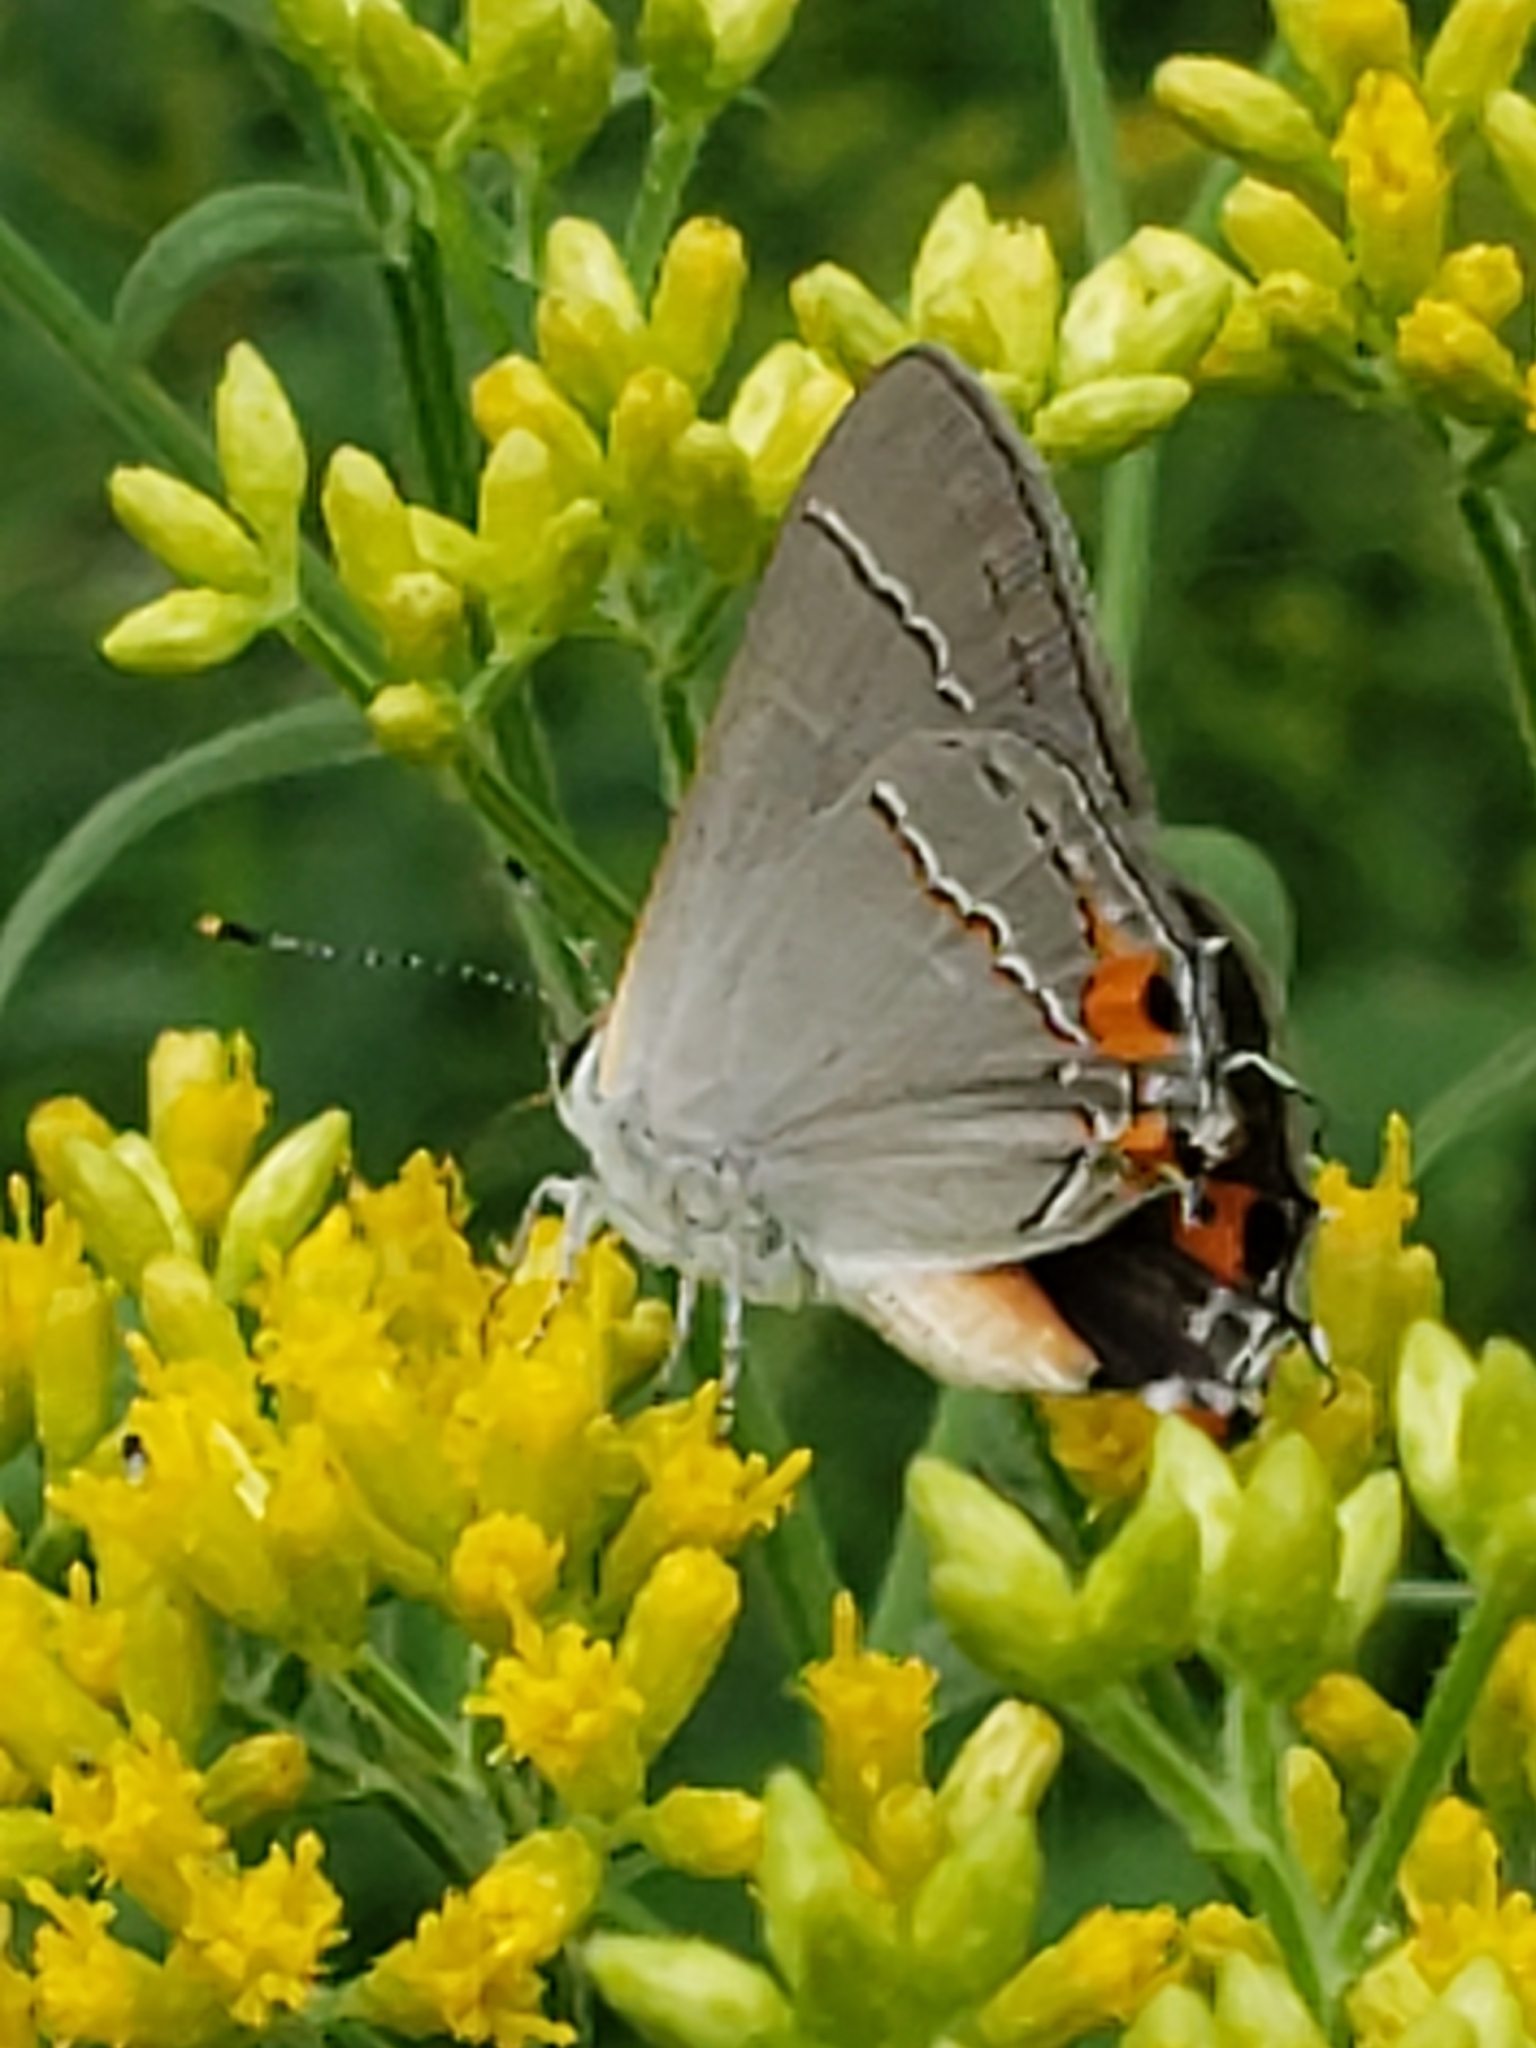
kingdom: Animalia
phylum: Arthropoda
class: Insecta
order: Lepidoptera
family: Lycaenidae
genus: Strymon
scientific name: Strymon melinus
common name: Gray hairstreak
